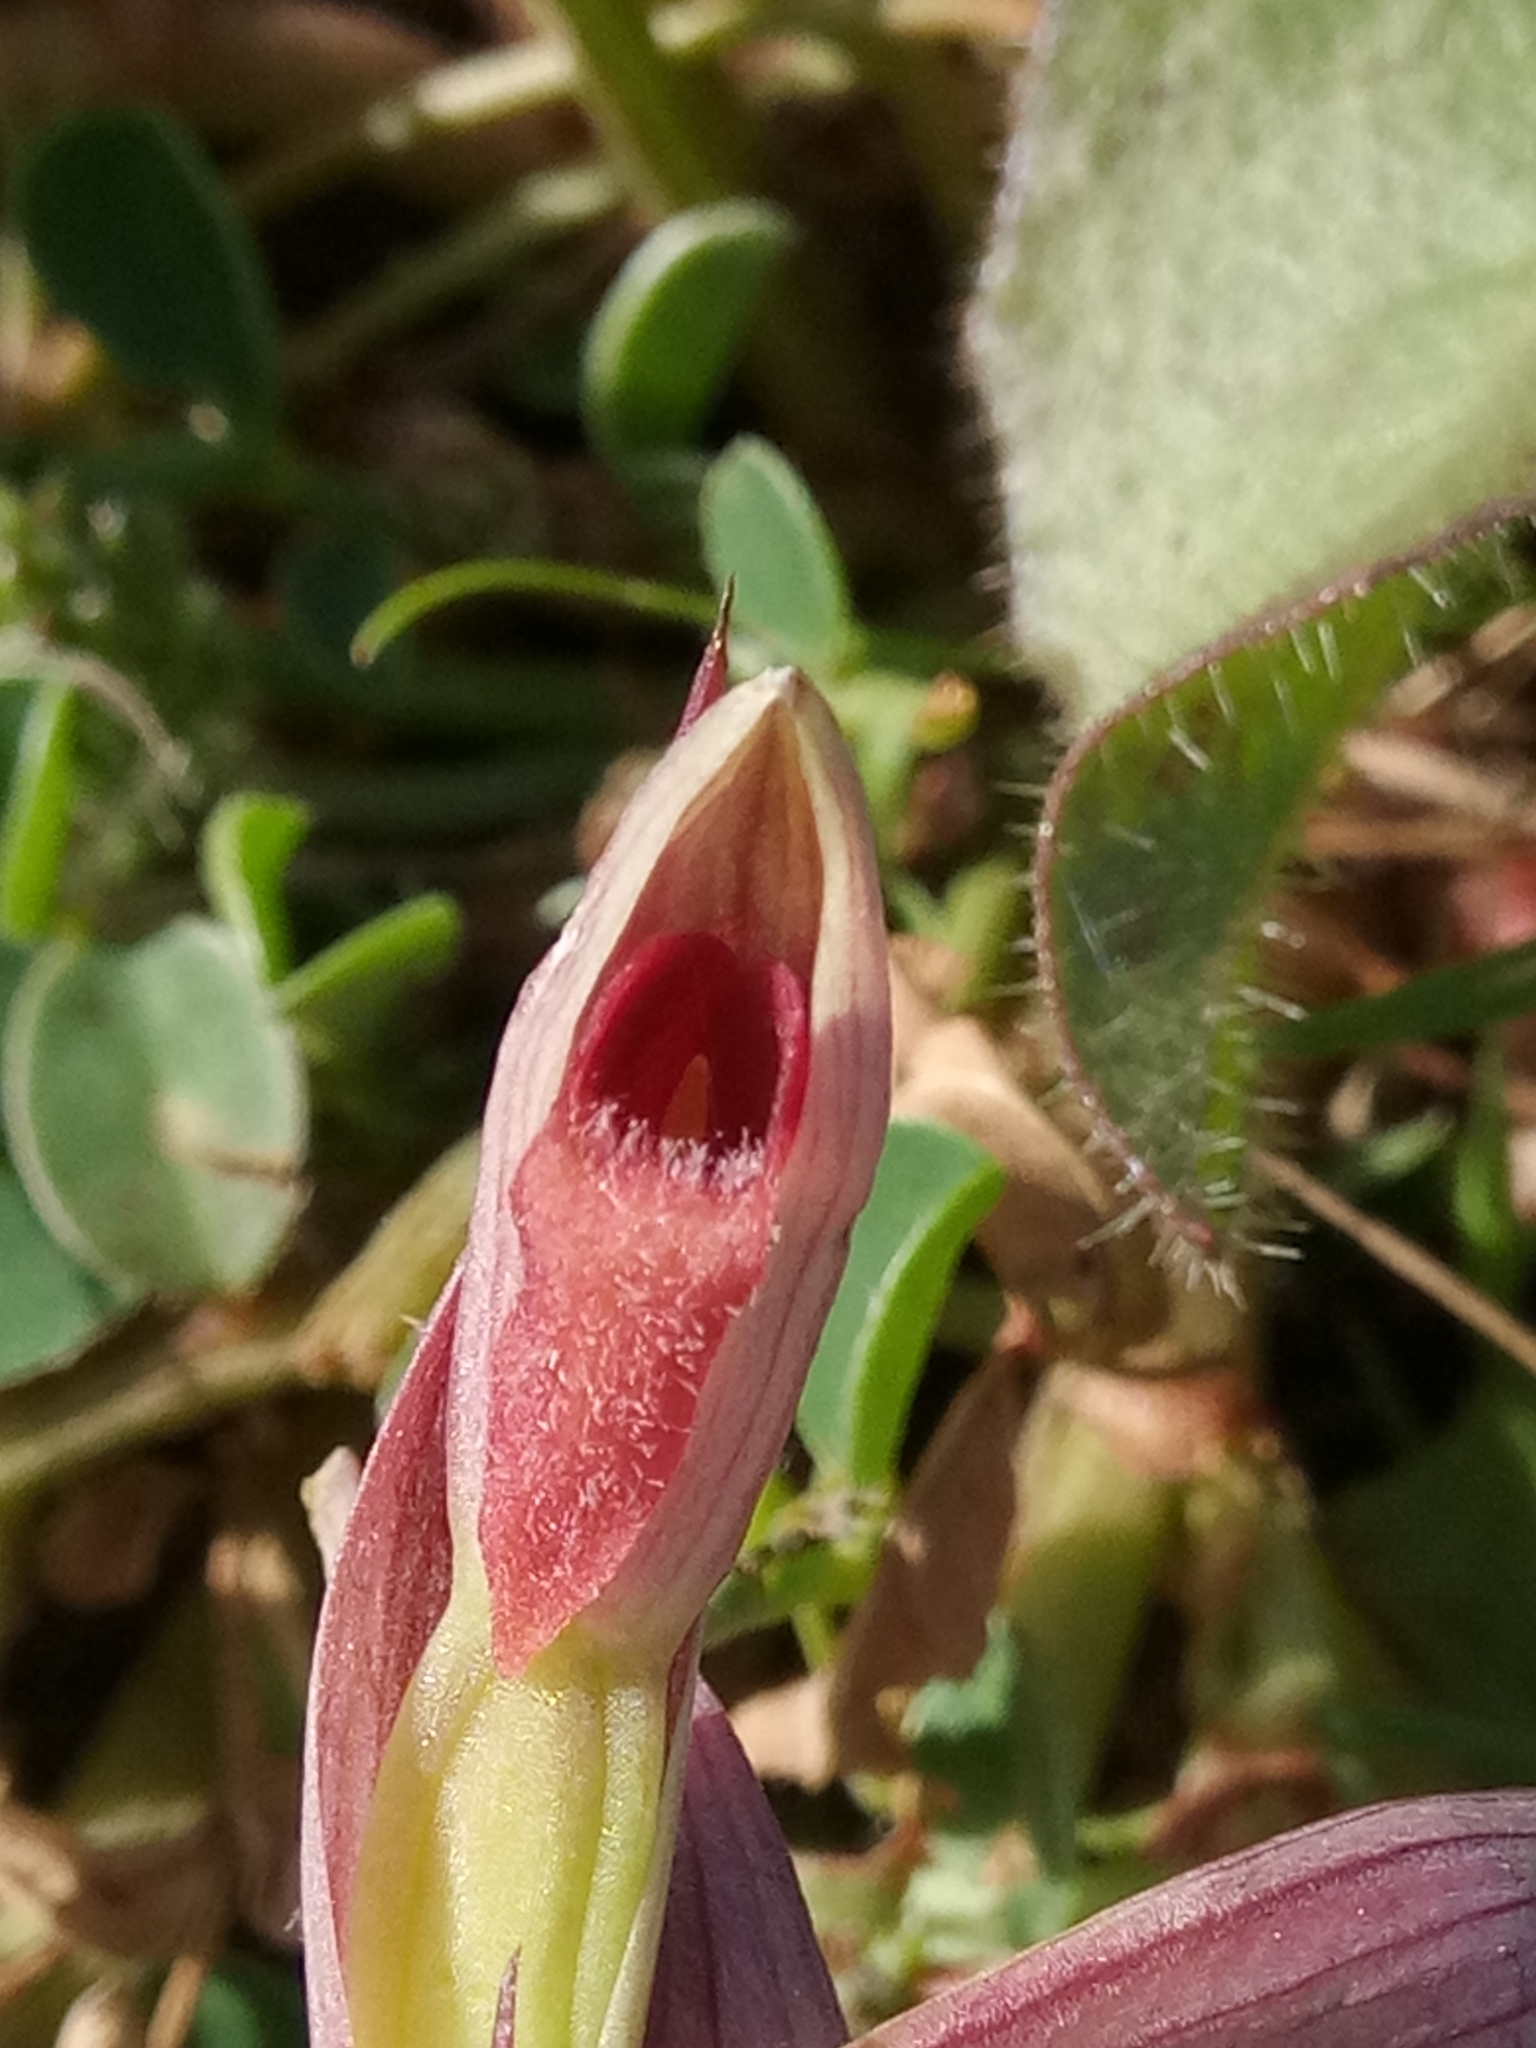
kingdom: Plantae
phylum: Tracheophyta
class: Liliopsida
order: Asparagales
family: Orchidaceae
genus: Serapias
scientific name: Serapias parviflora
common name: Small-flowered tongue-orchid
